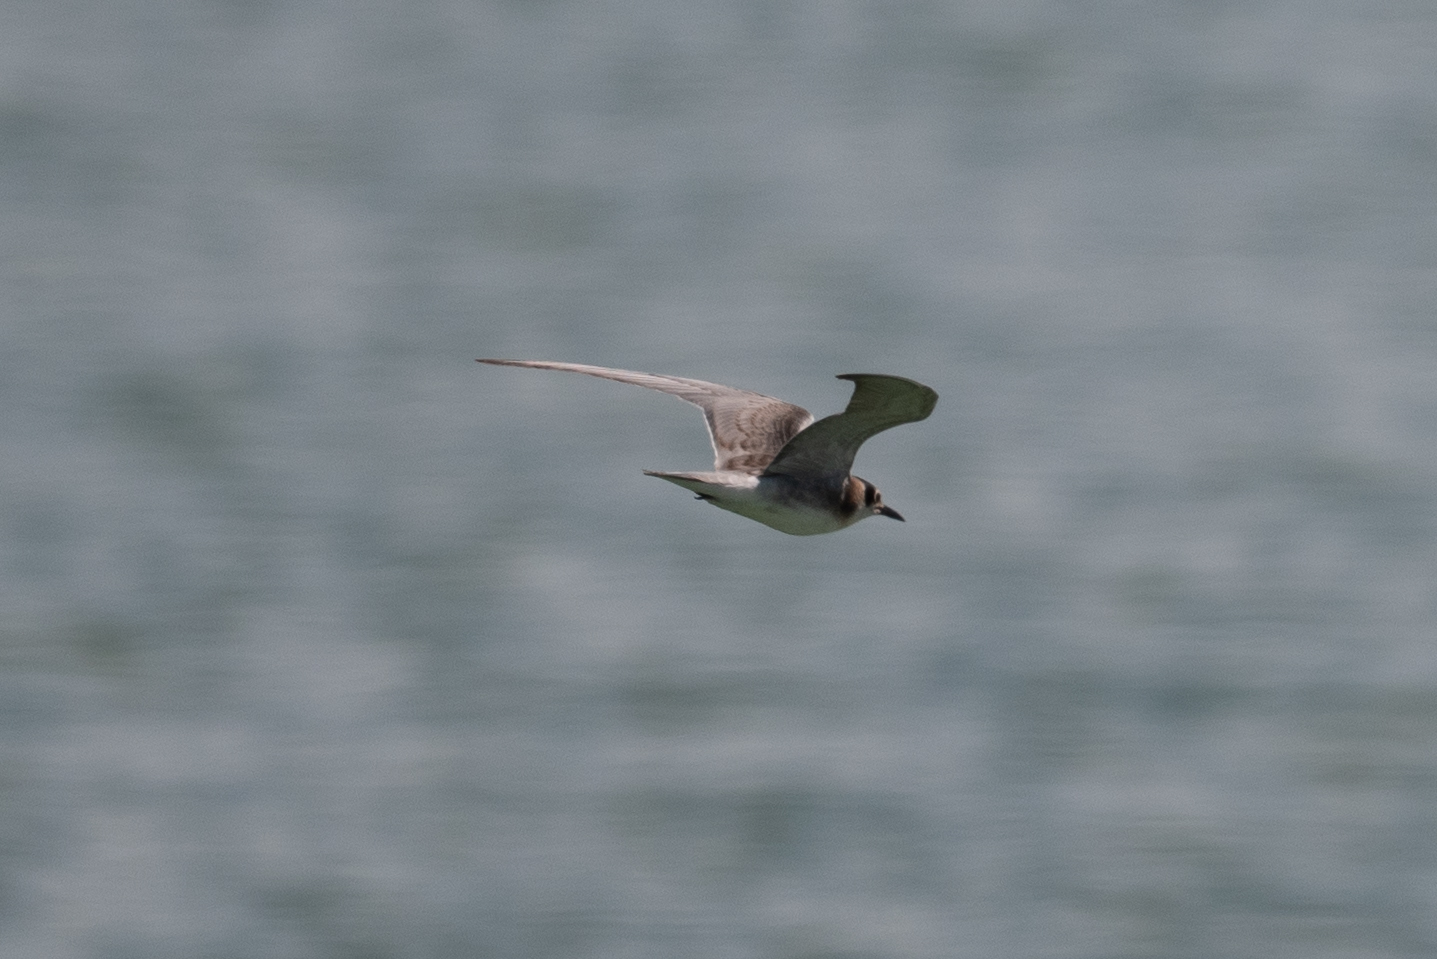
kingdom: Animalia
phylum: Chordata
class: Aves
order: Charadriiformes
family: Laridae
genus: Chlidonias
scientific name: Chlidonias niger
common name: Black tern
